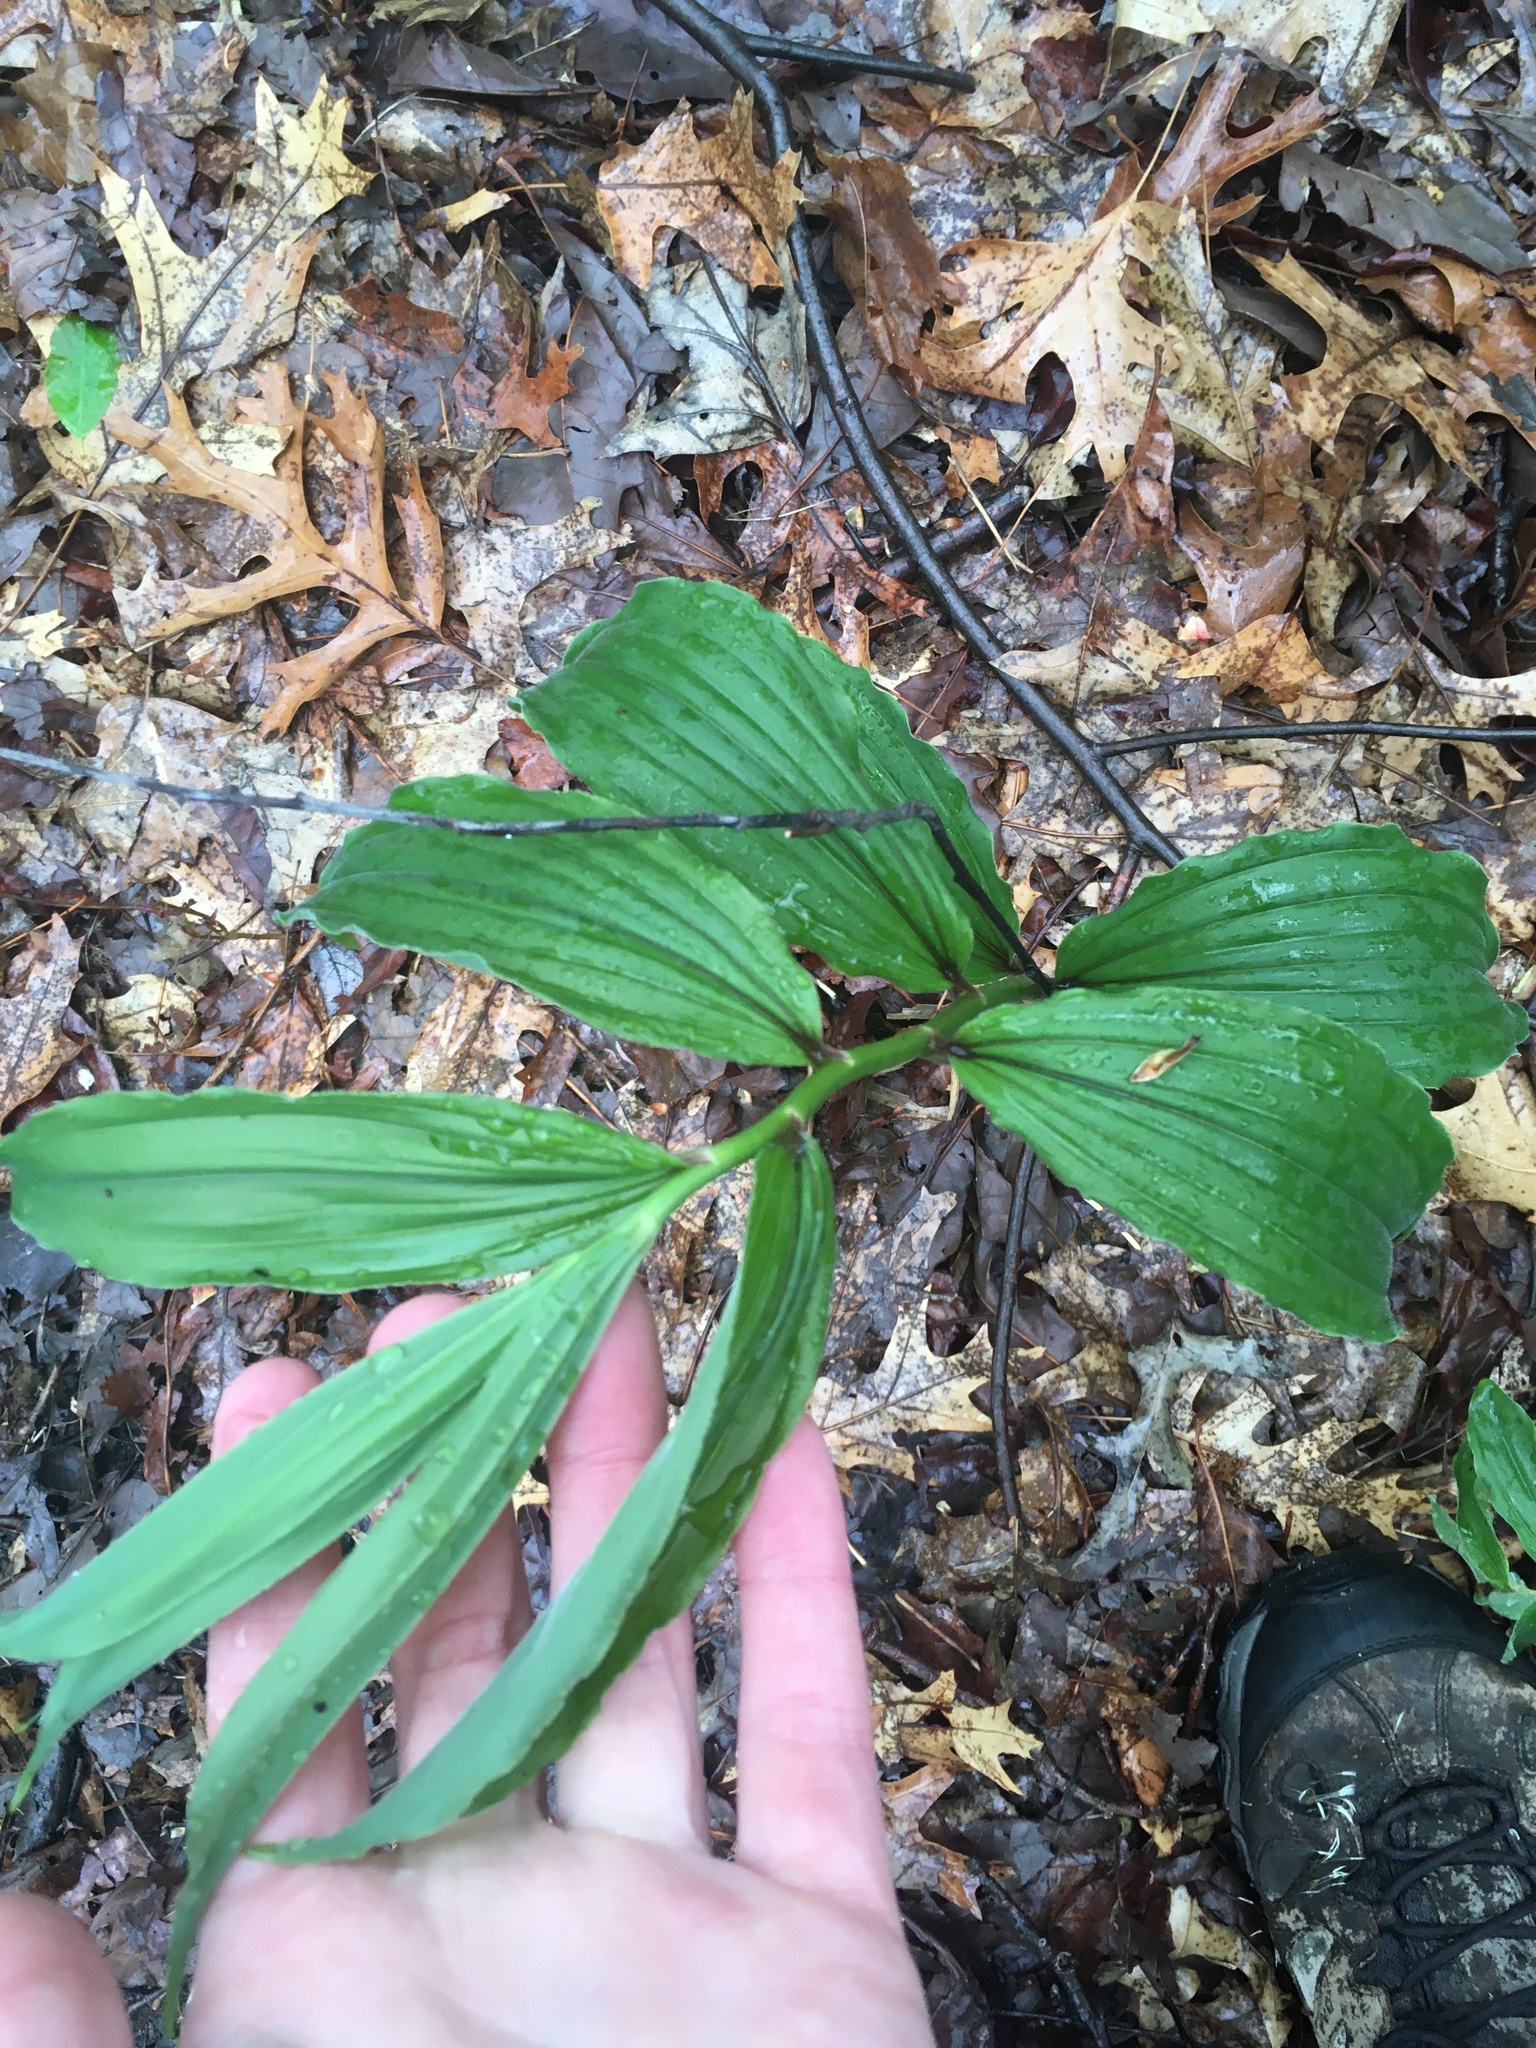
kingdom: Plantae
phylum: Tracheophyta
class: Liliopsida
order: Asparagales
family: Asparagaceae
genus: Maianthemum
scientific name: Maianthemum racemosum
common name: False spikenard
